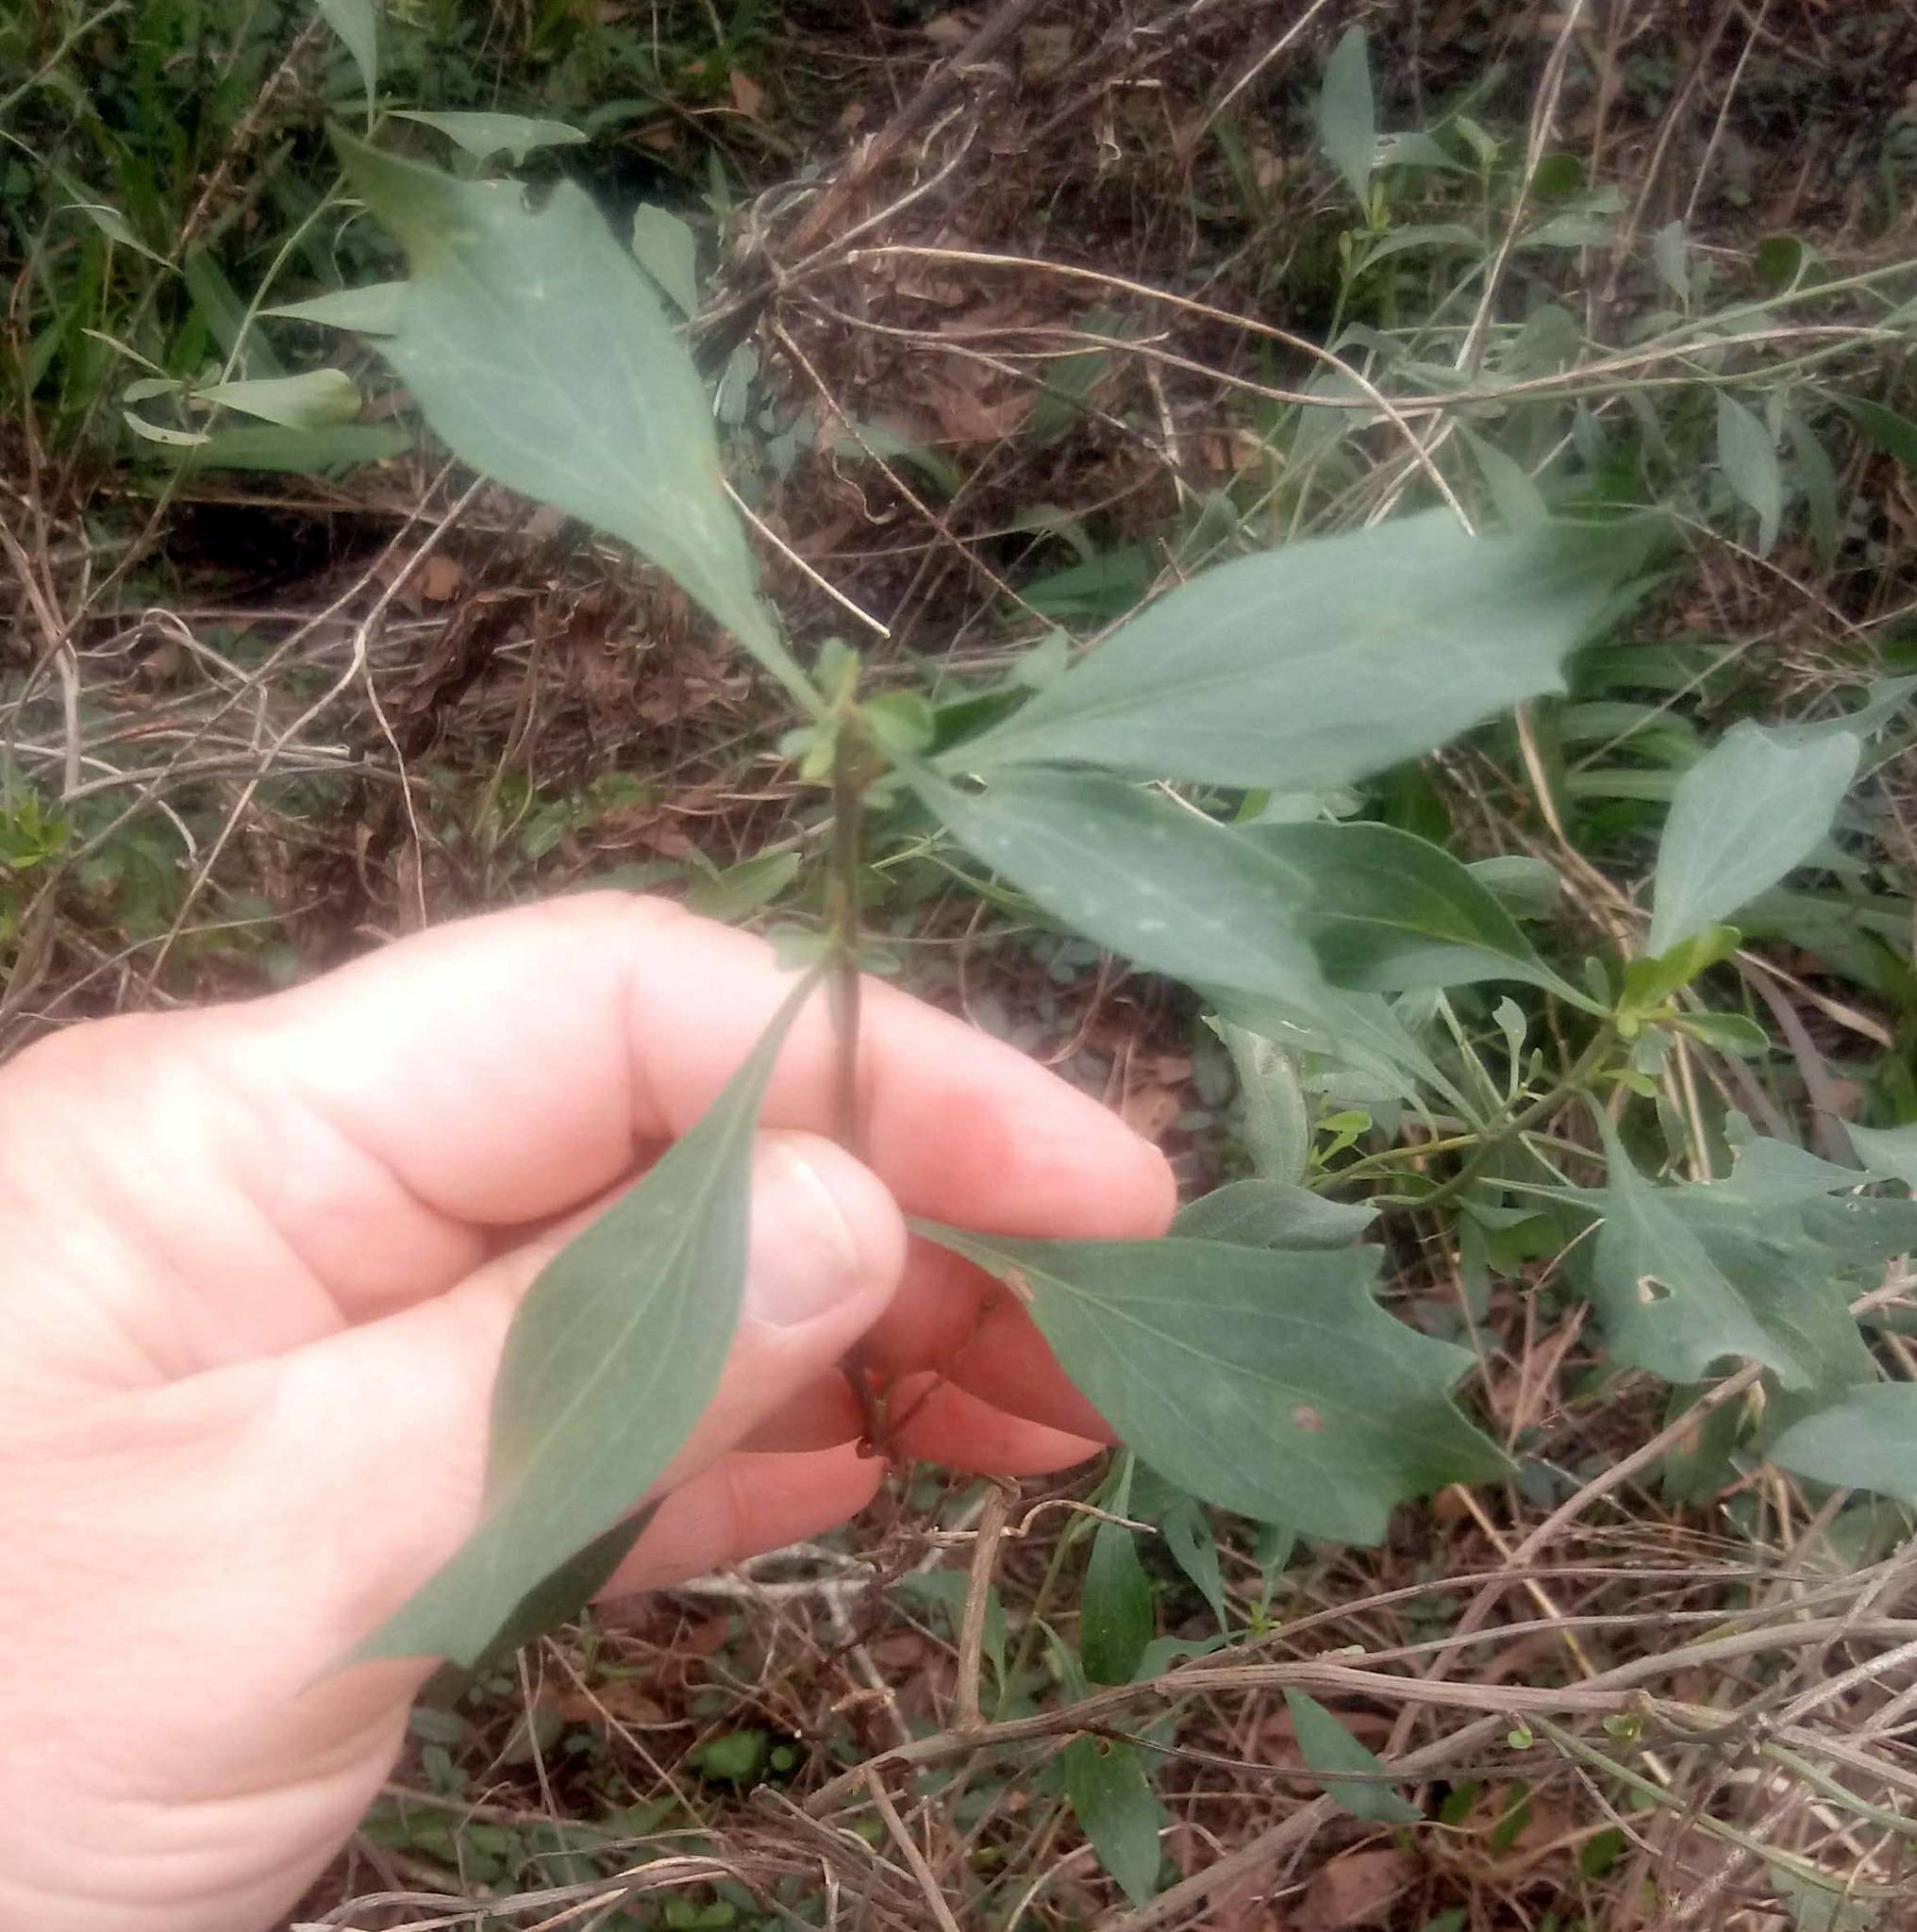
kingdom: Plantae
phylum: Tracheophyta
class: Magnoliopsida
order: Asterales
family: Asteraceae
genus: Baccharis
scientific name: Baccharis halimifolia
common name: Eastern baccharis
